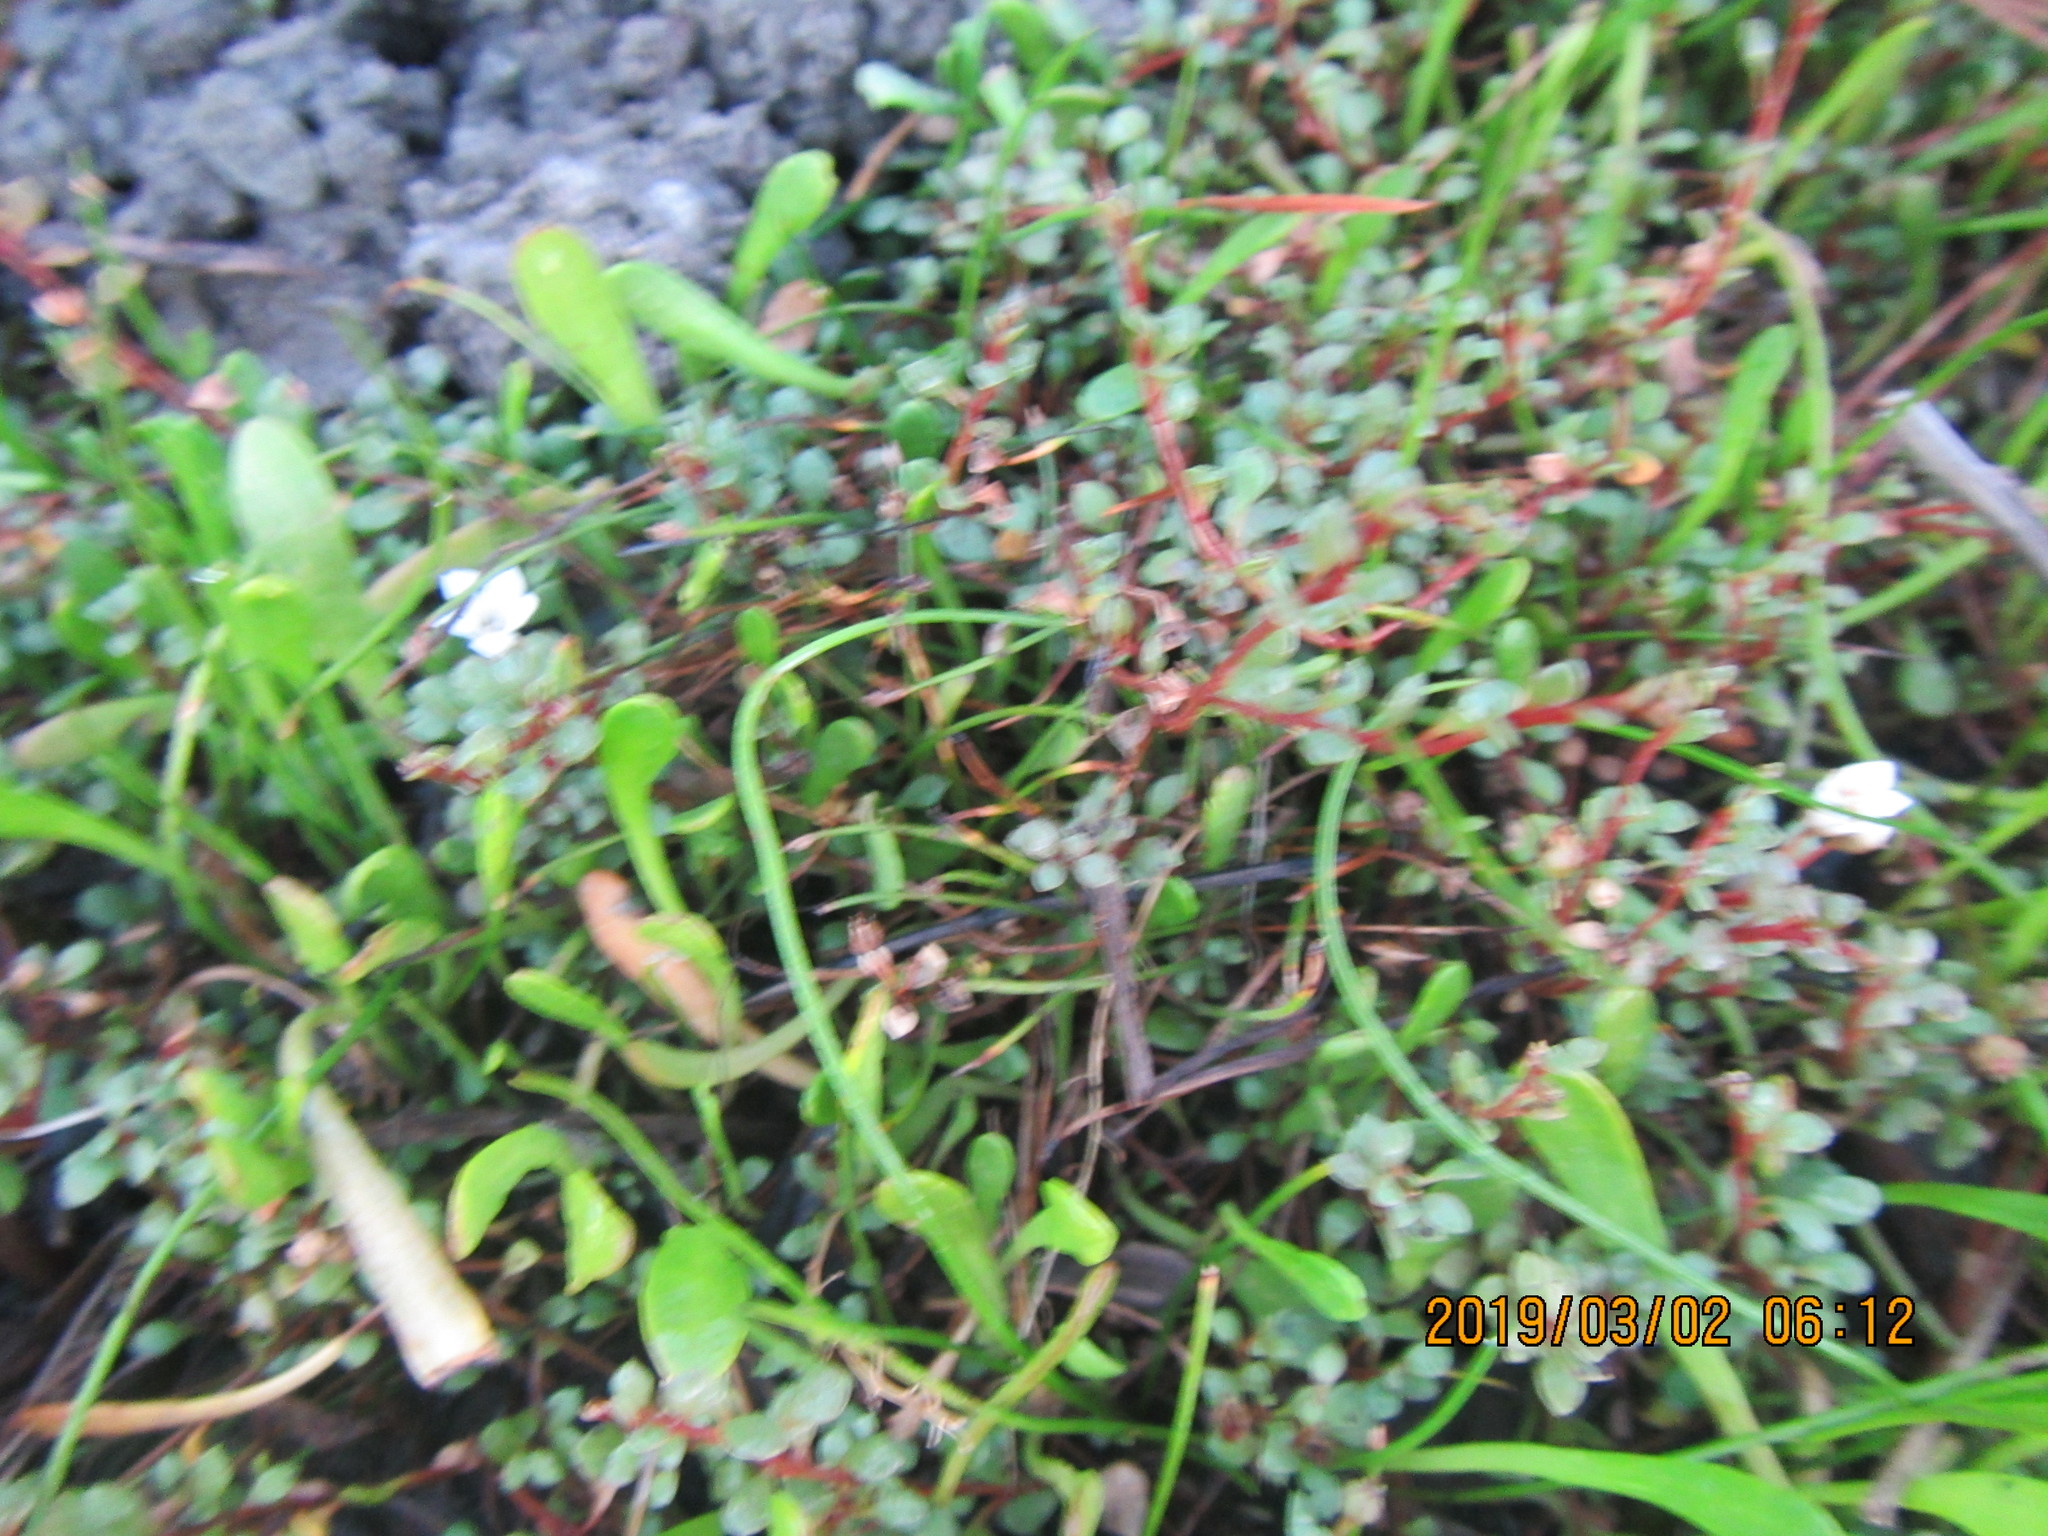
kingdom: Plantae
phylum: Tracheophyta
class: Magnoliopsida
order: Ericales
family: Primulaceae
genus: Samolus
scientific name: Samolus repens
